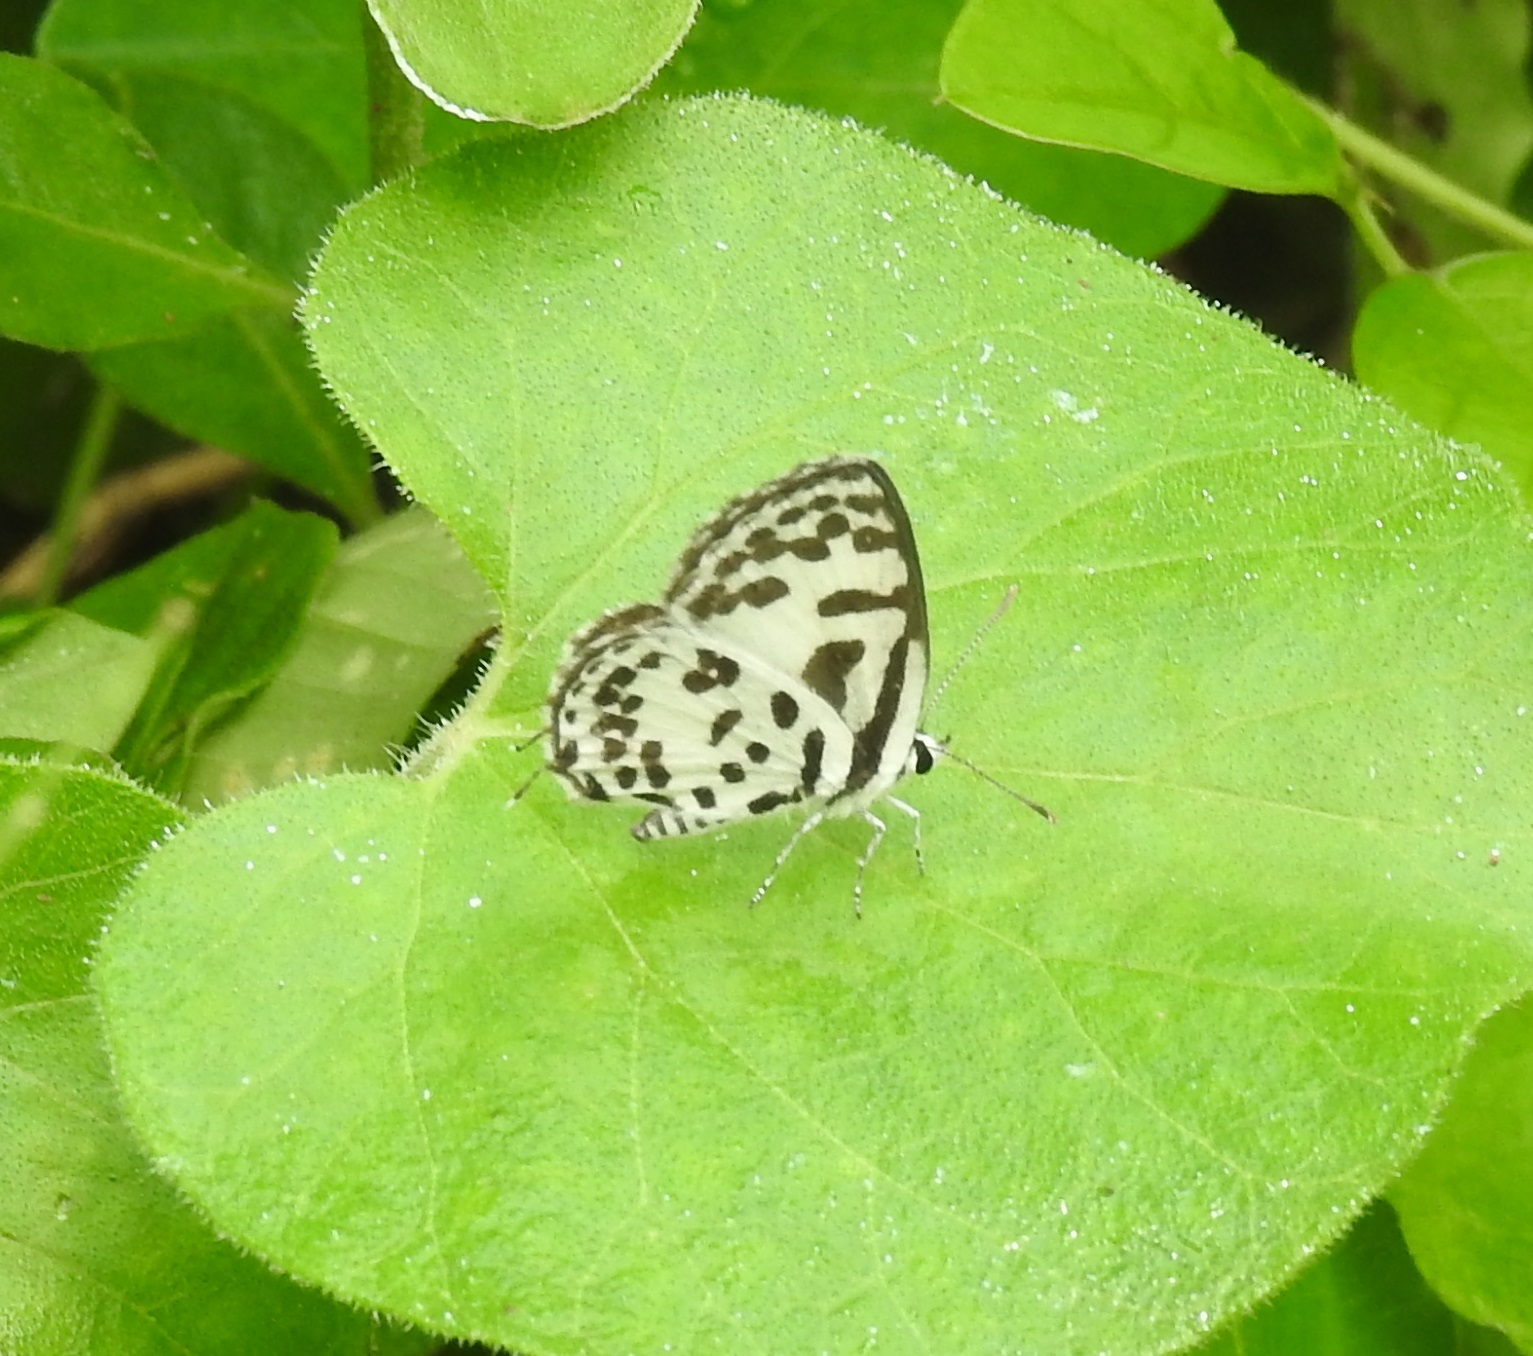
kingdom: Animalia
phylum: Arthropoda
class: Insecta
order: Lepidoptera
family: Lycaenidae
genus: Castalius
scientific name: Castalius rosimon
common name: Common pierrot
